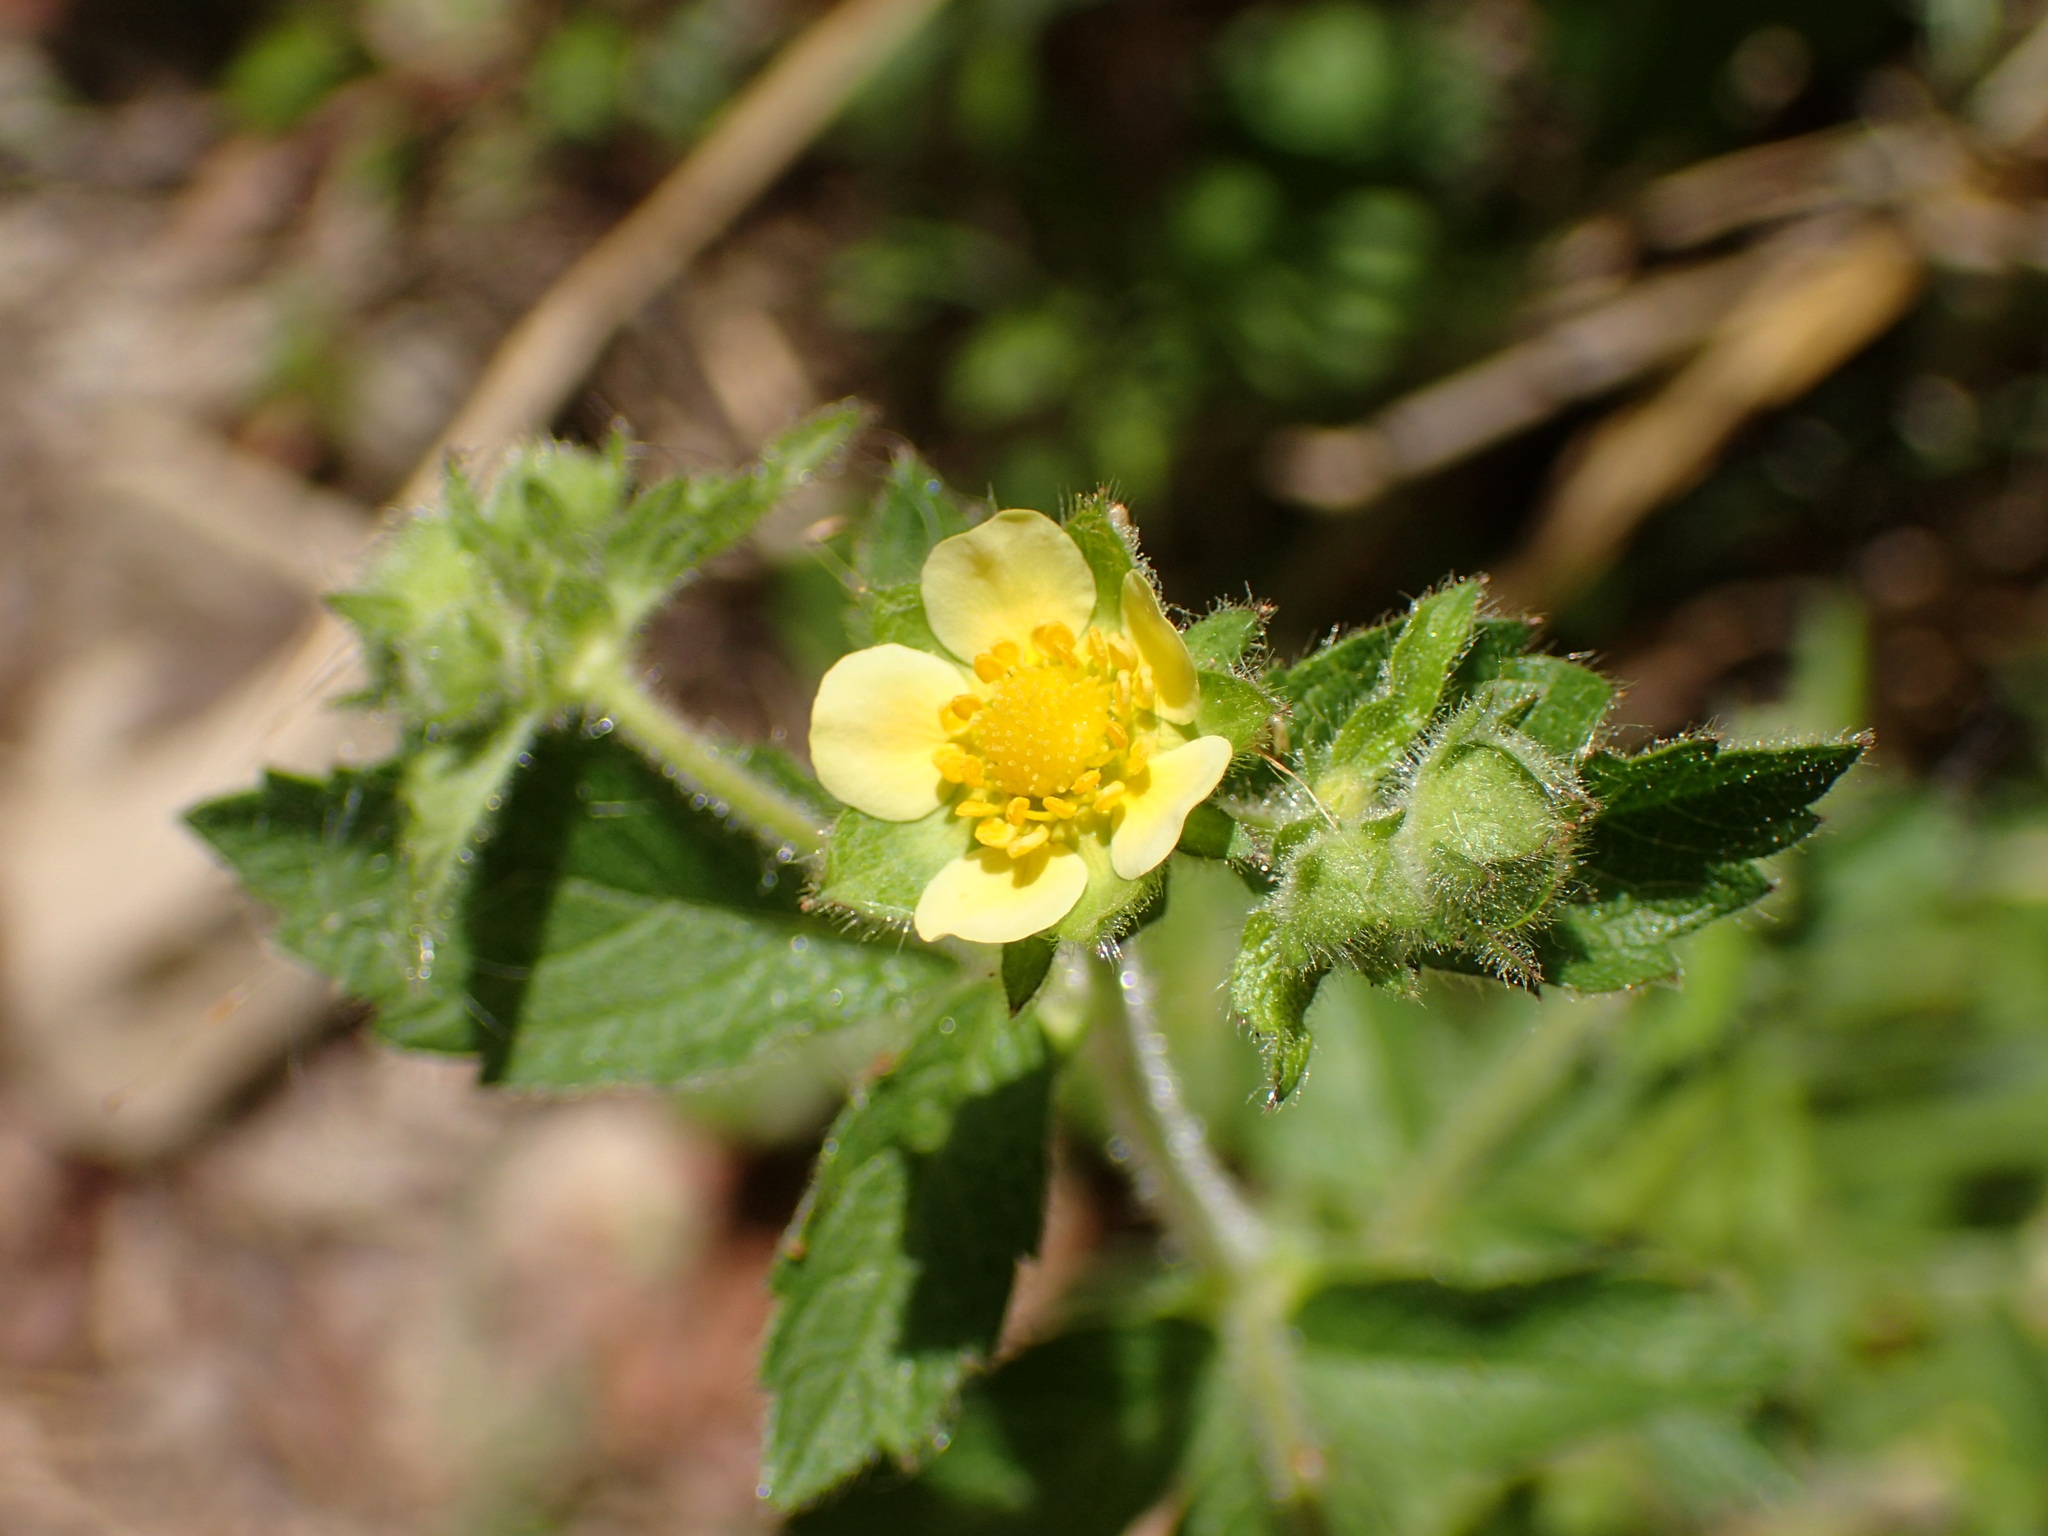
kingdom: Plantae
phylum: Tracheophyta
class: Magnoliopsida
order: Rosales
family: Rosaceae
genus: Drymocallis
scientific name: Drymocallis glandulosa
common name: Sticky cinquefoil
